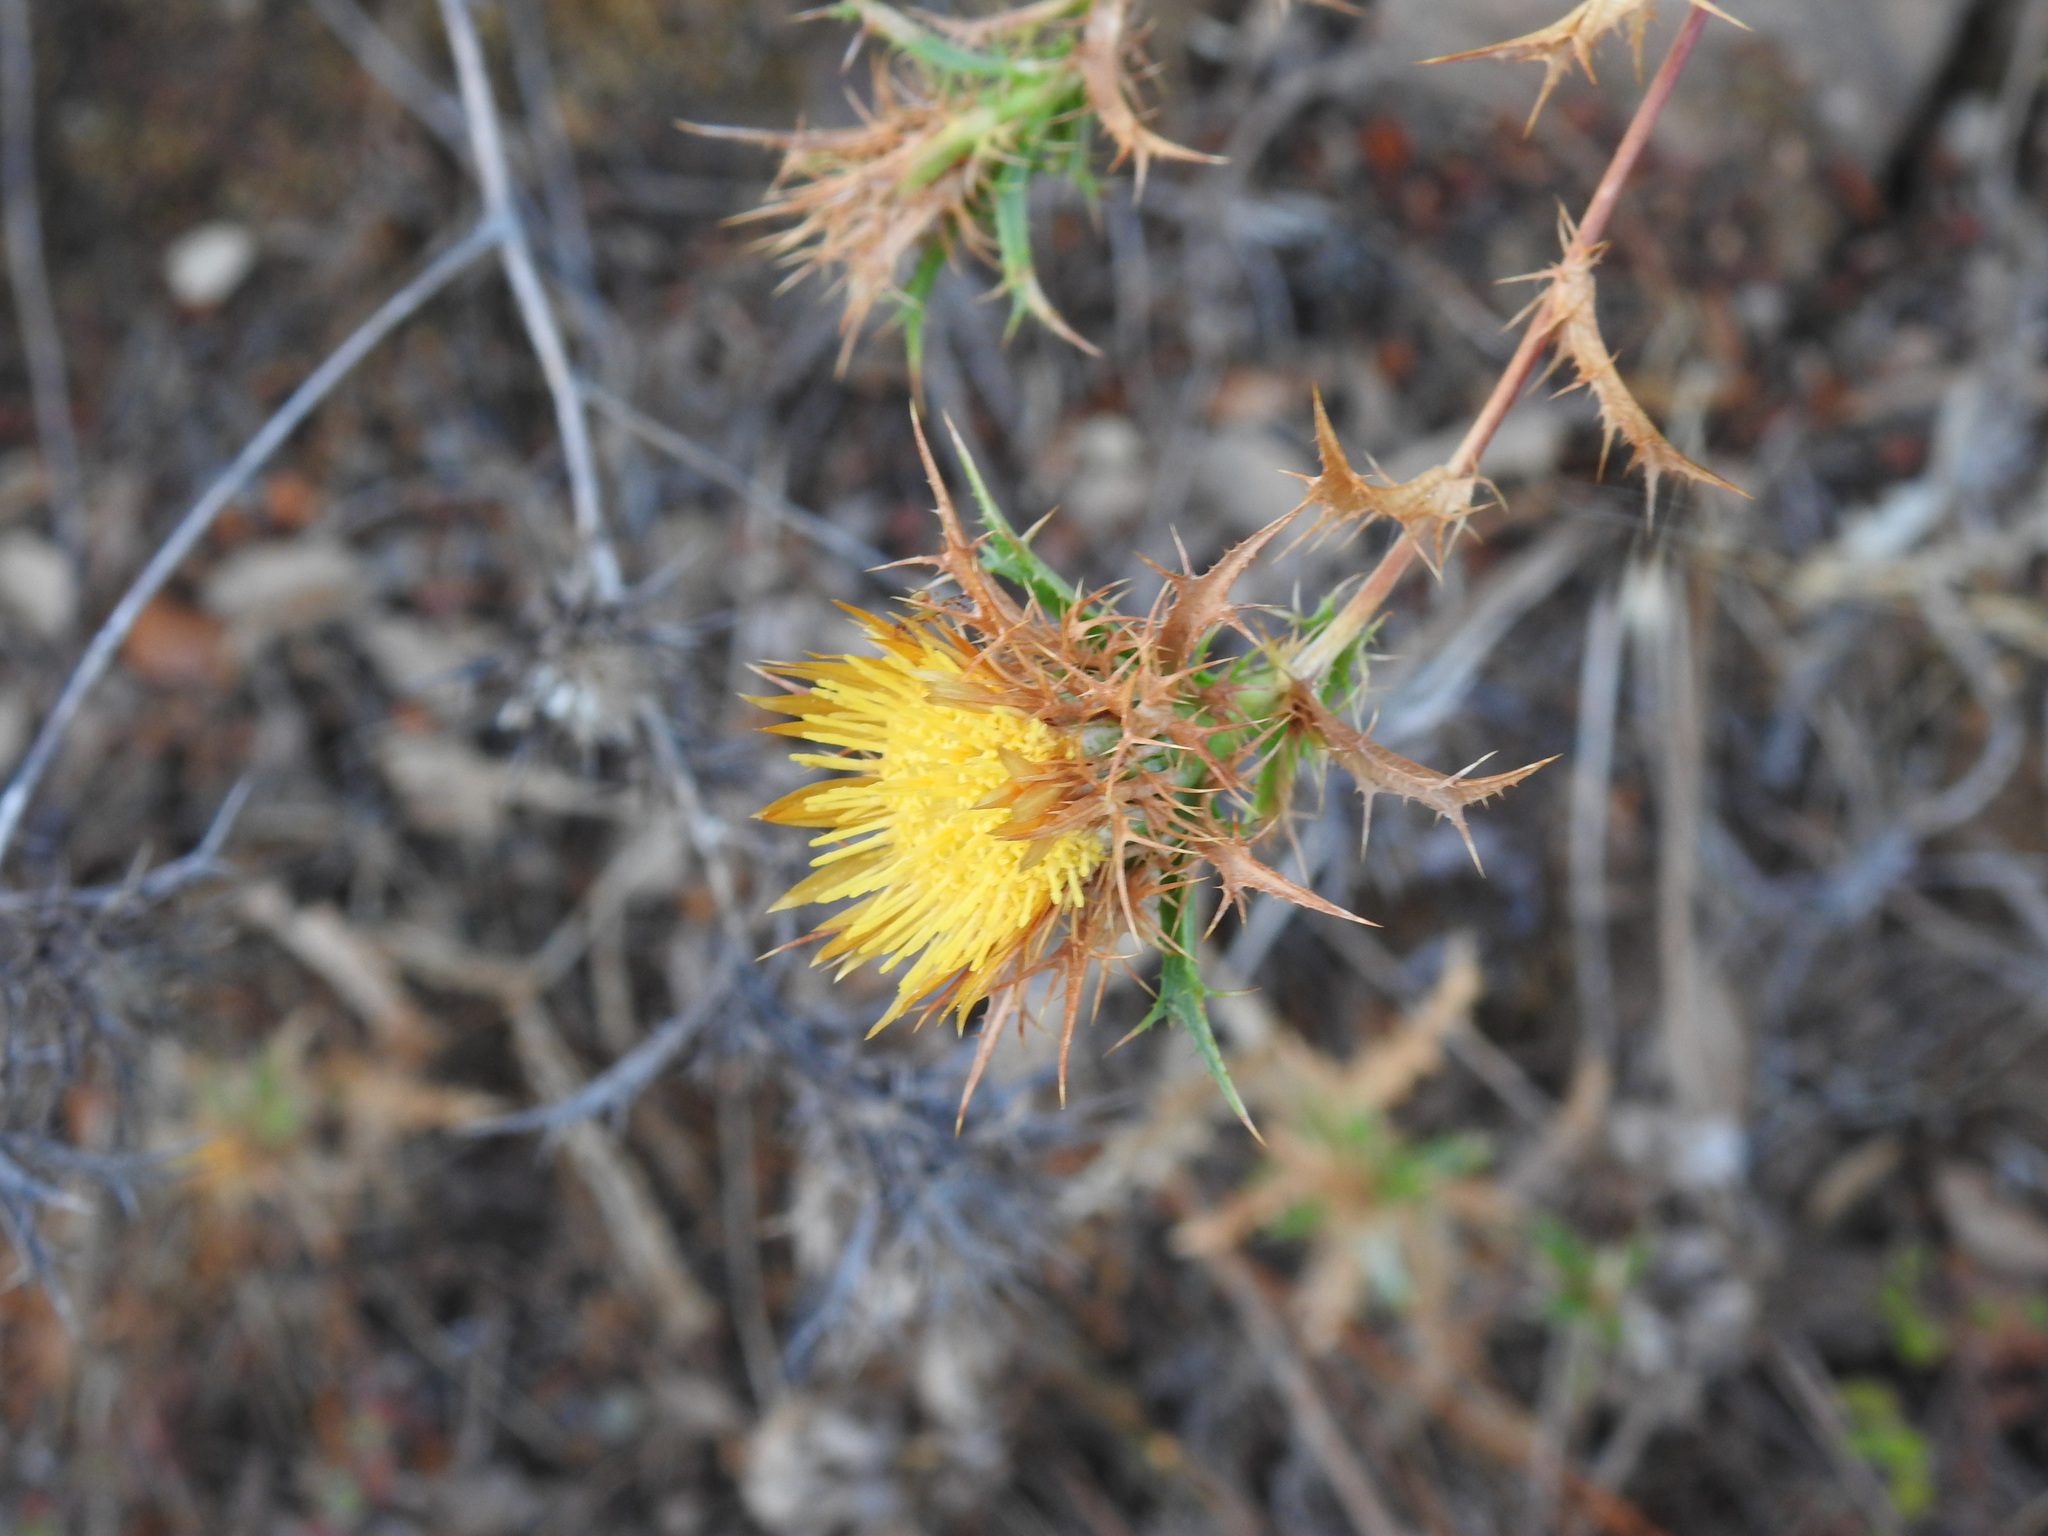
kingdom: Plantae
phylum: Tracheophyta
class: Magnoliopsida
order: Asterales
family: Asteraceae
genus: Carlina
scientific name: Carlina hispanica
